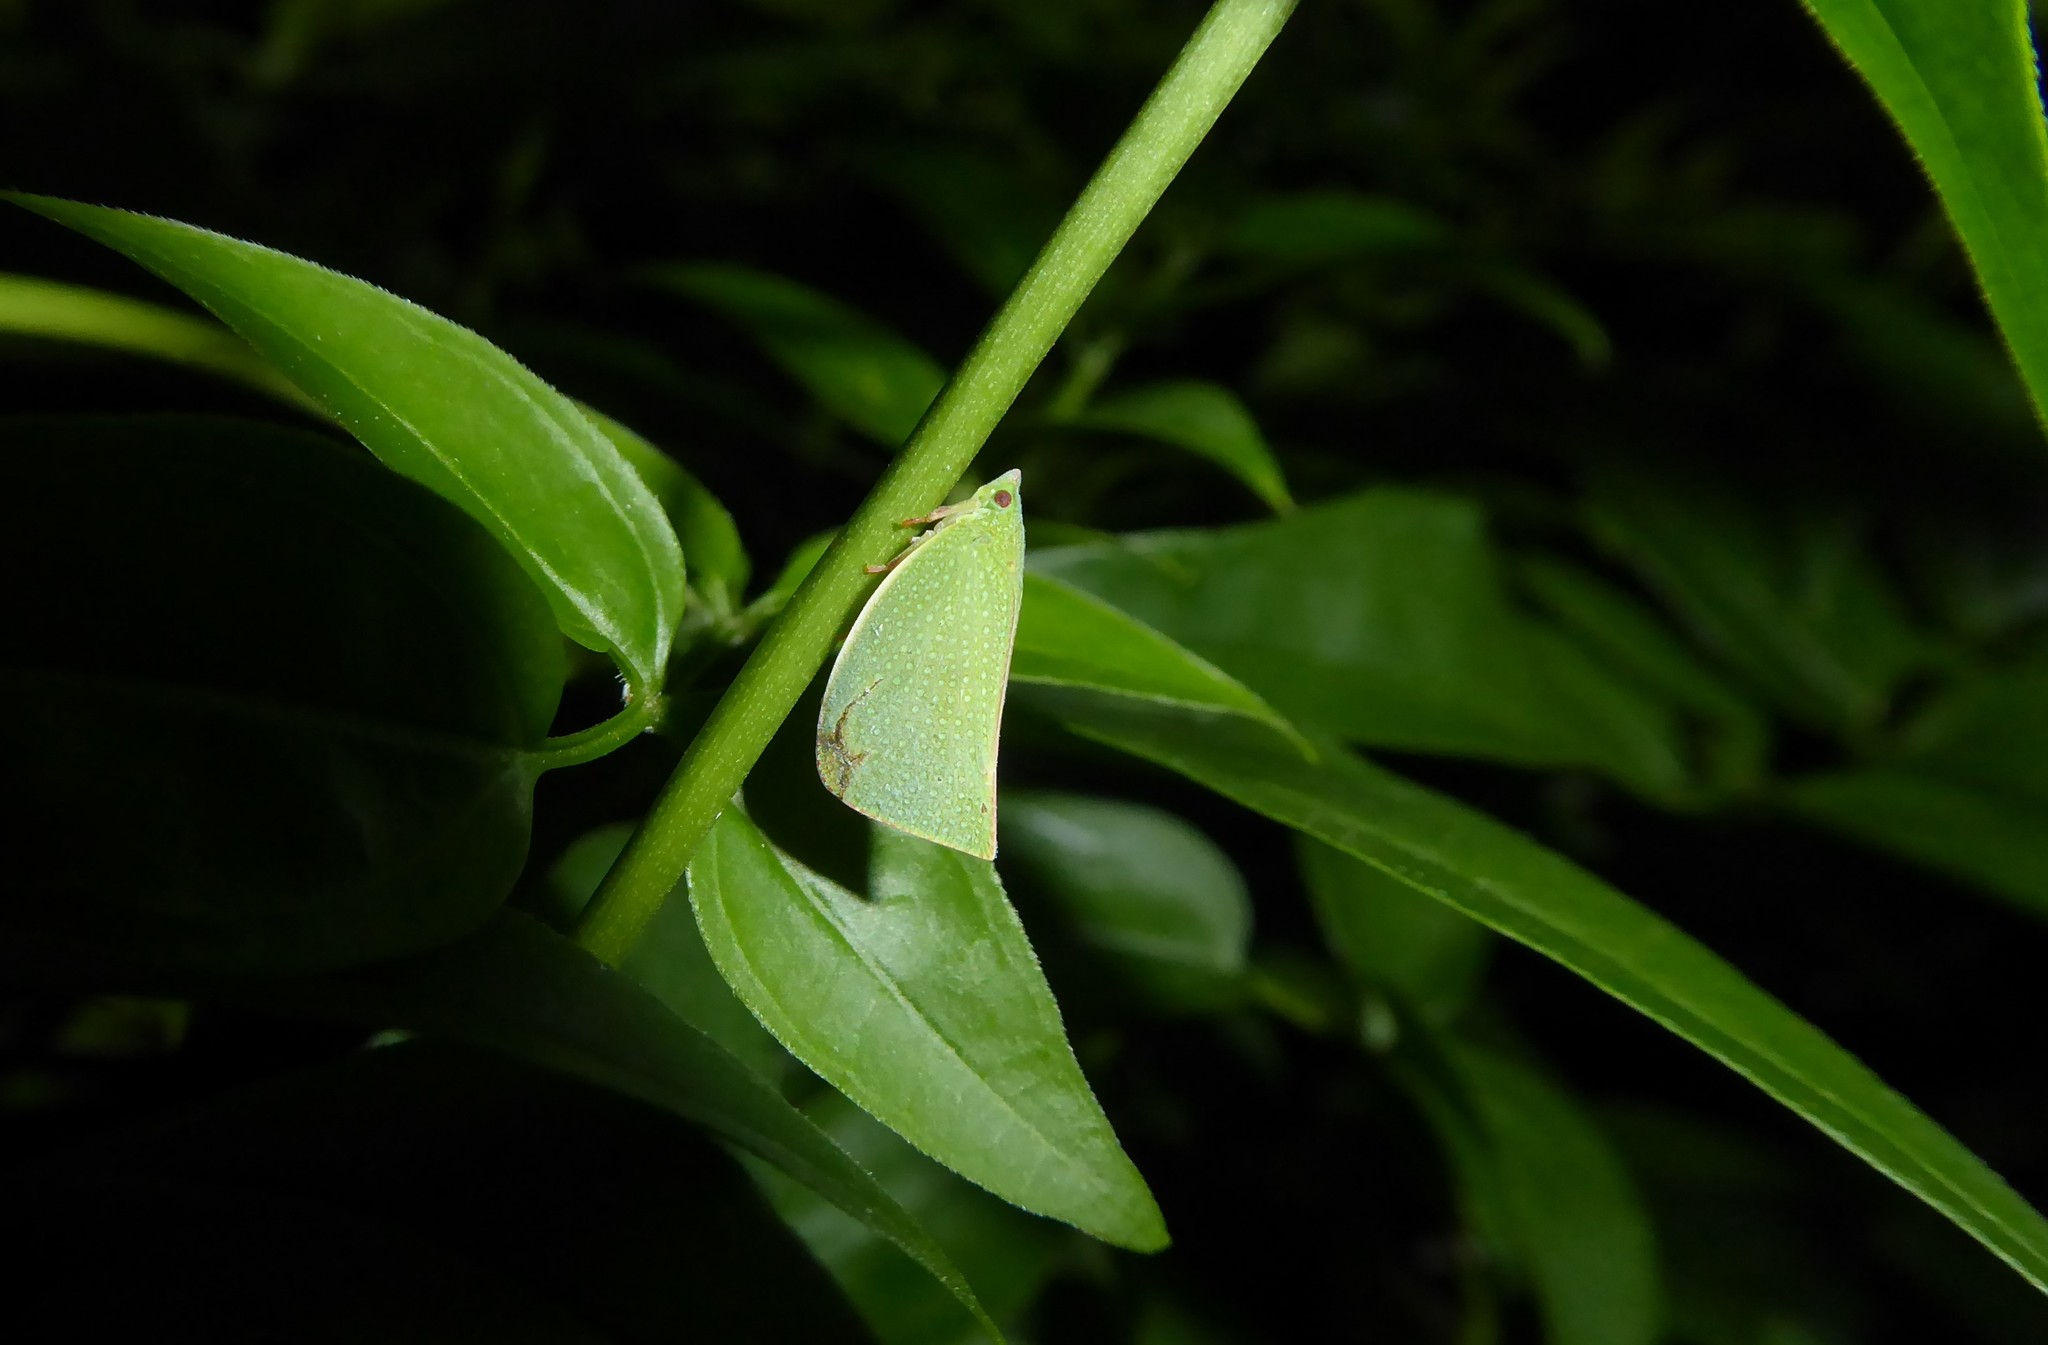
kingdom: Animalia
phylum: Arthropoda
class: Insecta
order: Hemiptera
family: Flatidae
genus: Siphanta
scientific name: Siphanta acuta
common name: Torpedo bug
